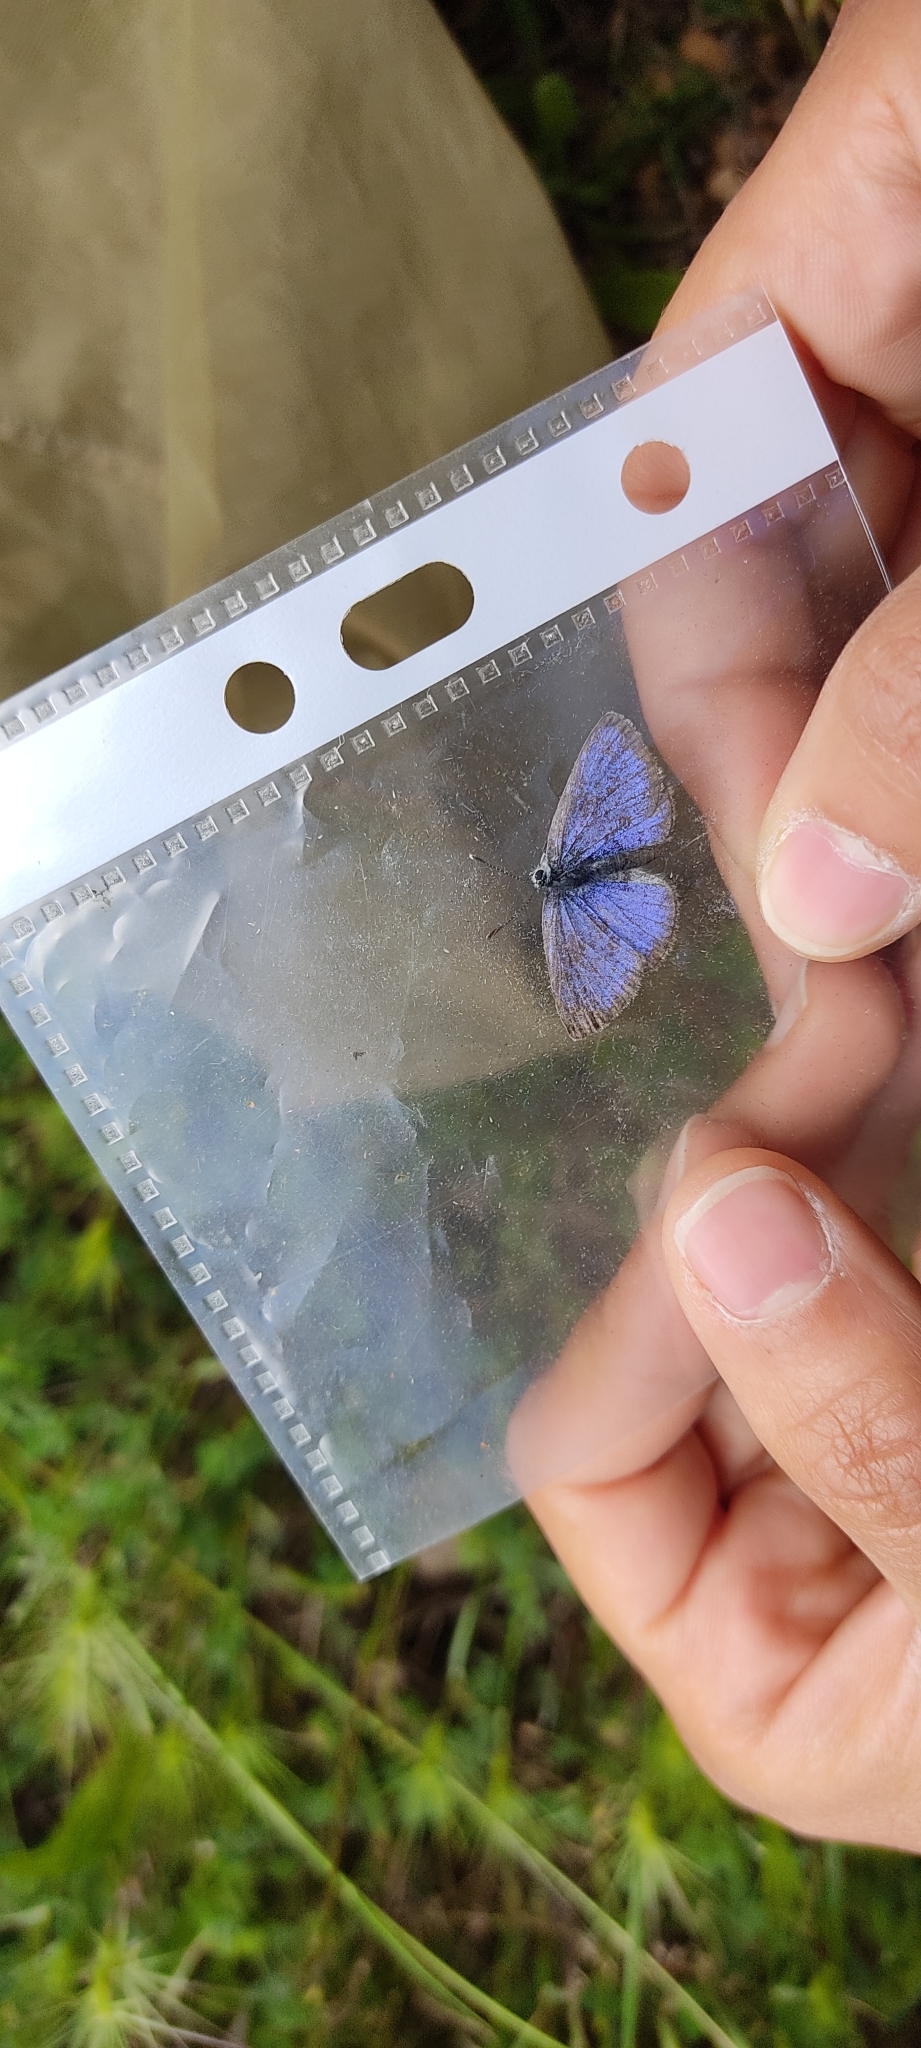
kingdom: Animalia
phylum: Arthropoda
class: Insecta
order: Lepidoptera
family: Lycaenidae
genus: Glaucopsyche
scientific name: Glaucopsyche alexis
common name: Green-underside blue
